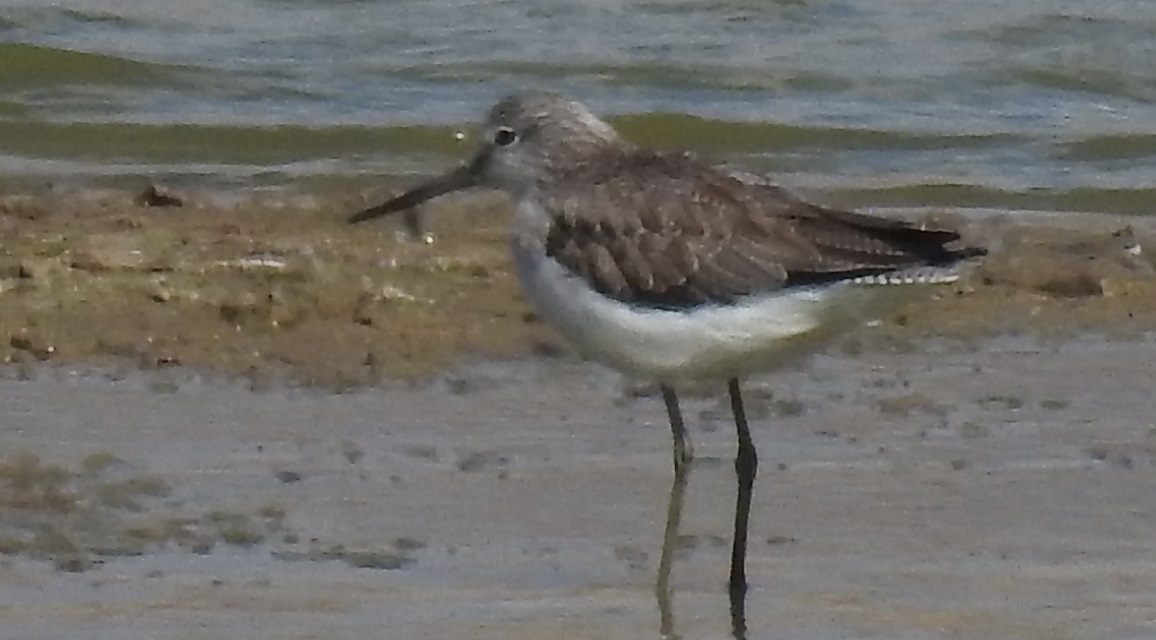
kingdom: Animalia
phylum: Chordata
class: Aves
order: Charadriiformes
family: Scolopacidae
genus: Tringa
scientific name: Tringa nebularia
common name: Common greenshank
